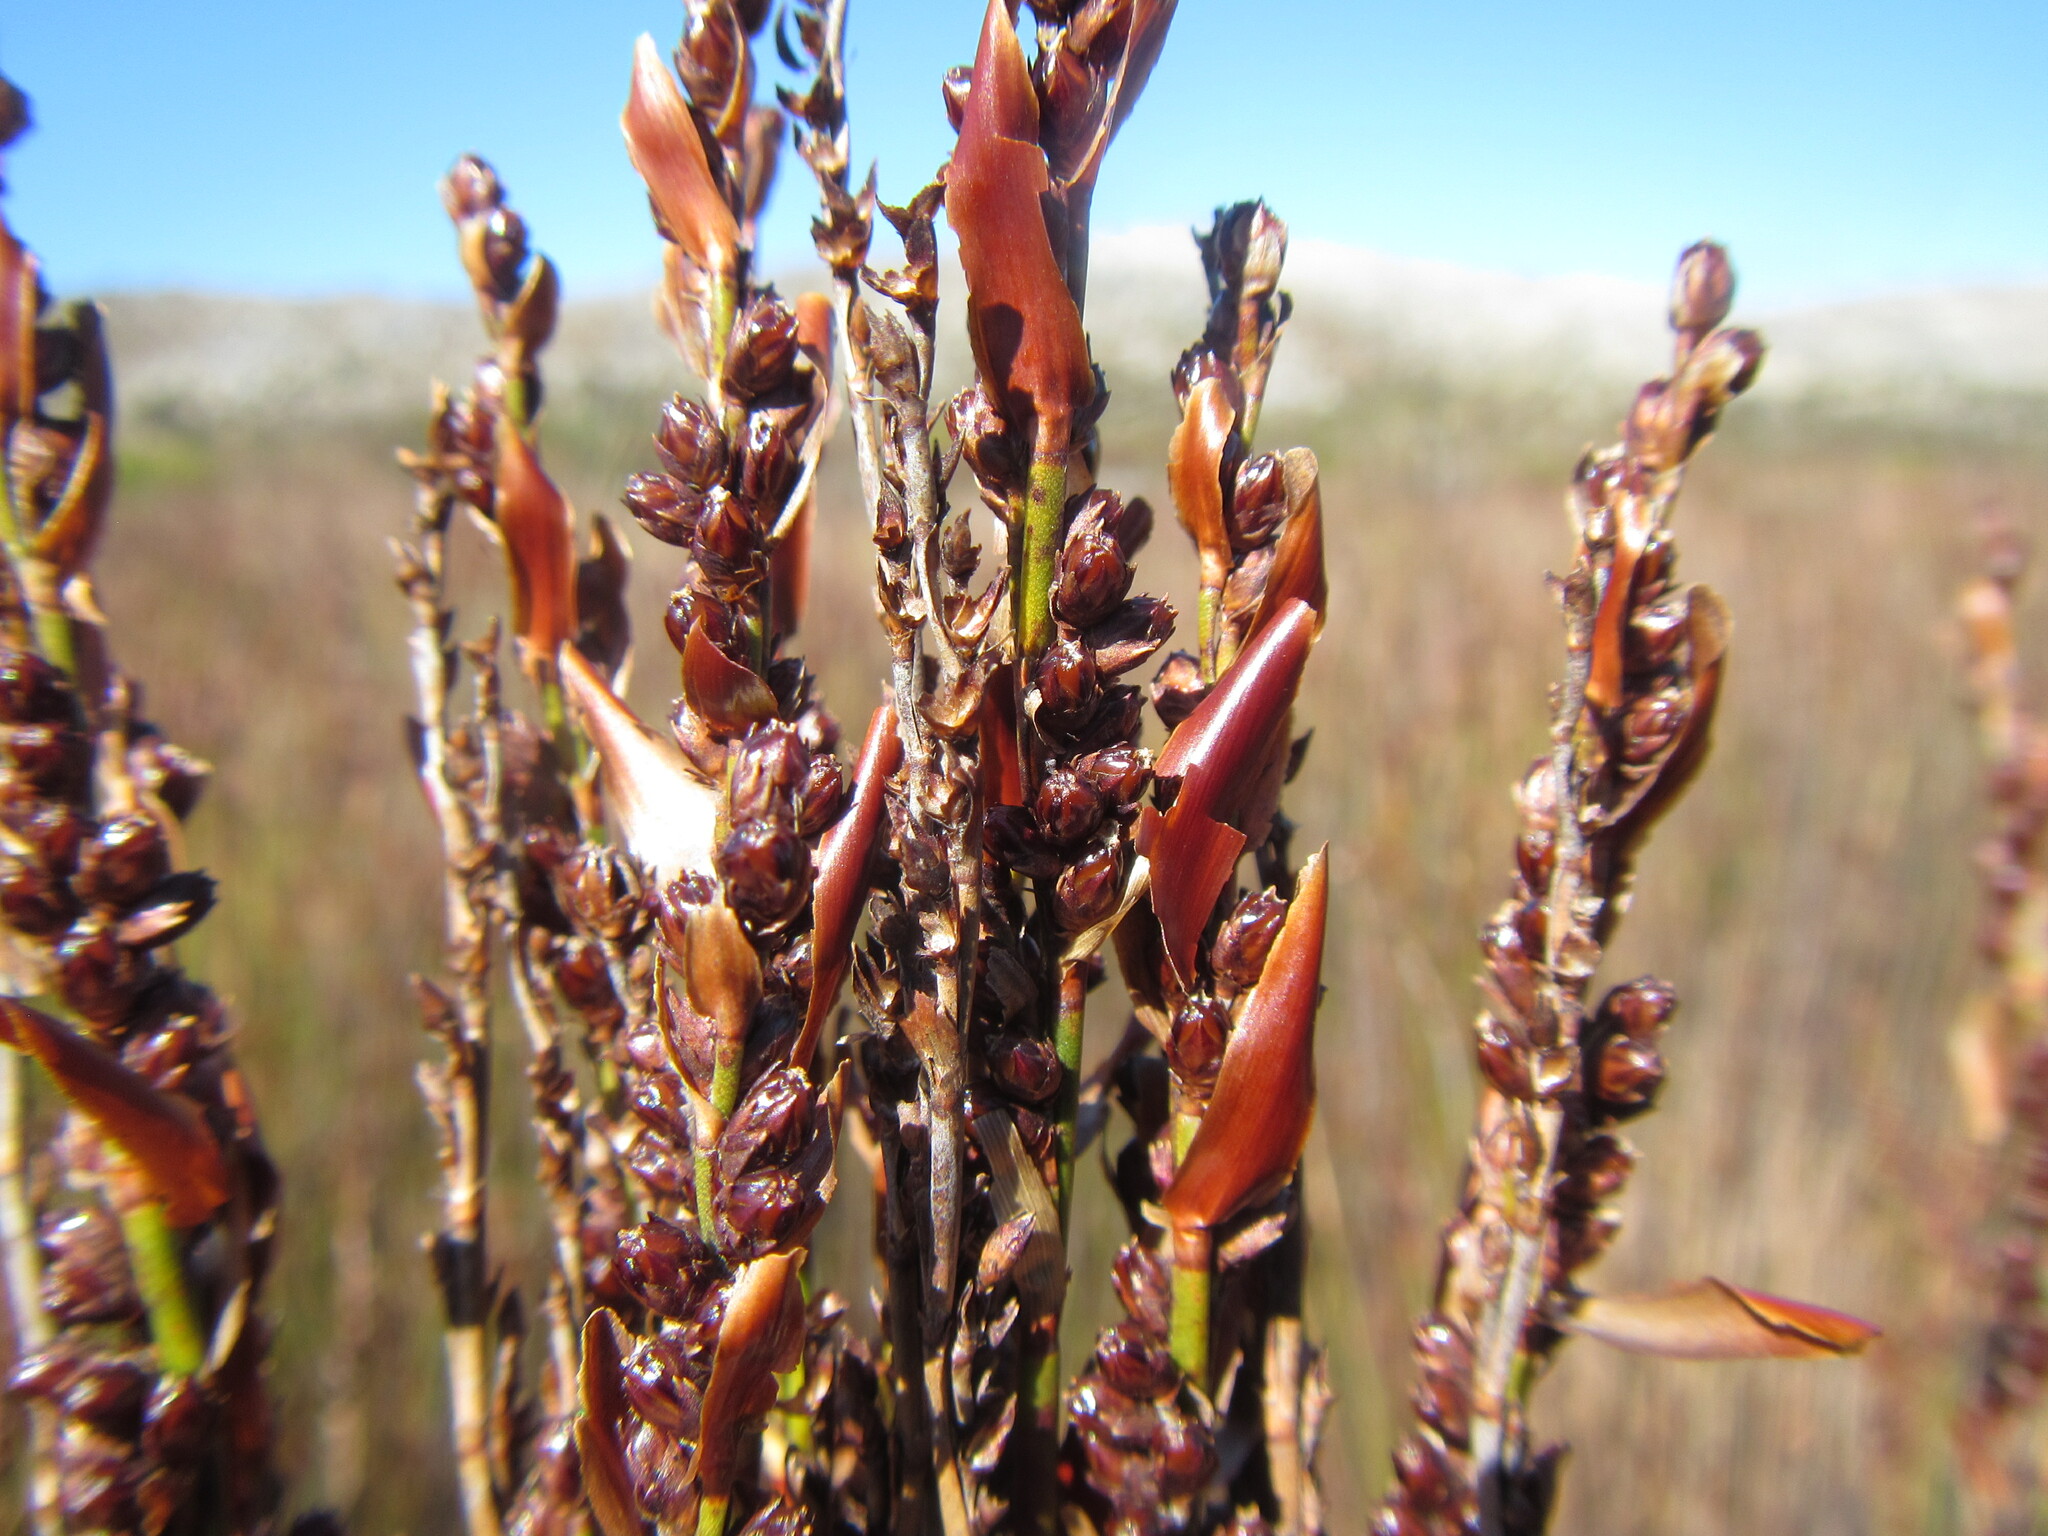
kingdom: Plantae
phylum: Tracheophyta
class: Liliopsida
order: Poales
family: Restionaceae
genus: Elegia
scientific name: Elegia hookeriana
